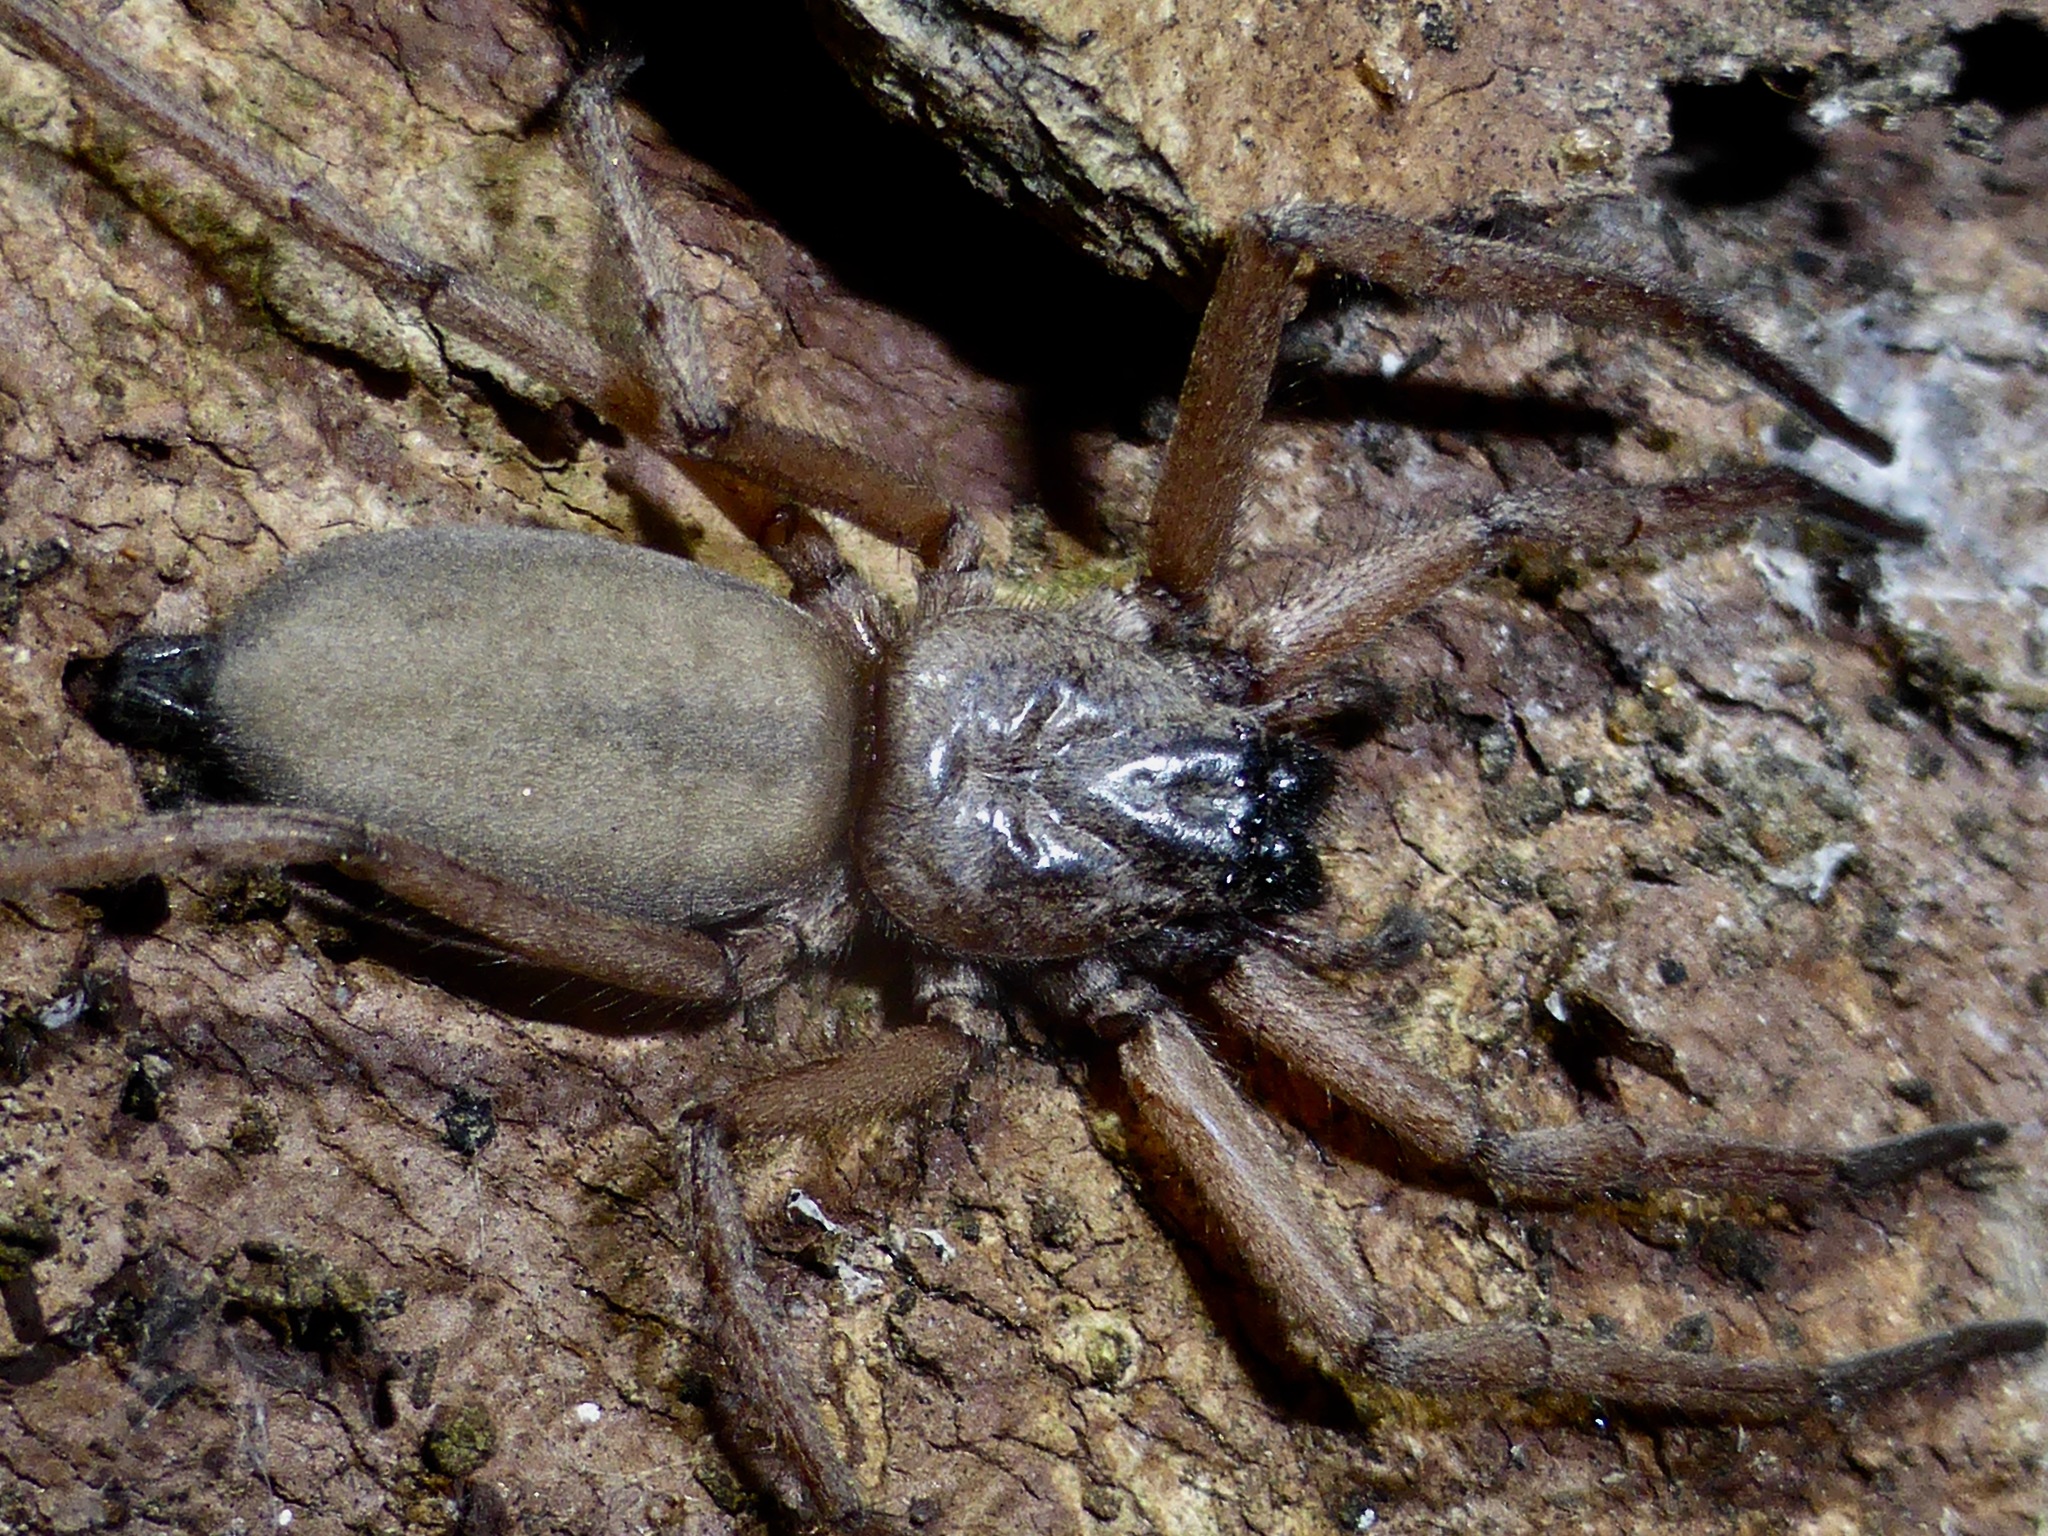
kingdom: Animalia
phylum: Arthropoda
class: Arachnida
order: Araneae
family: Trochanteriidae
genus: Hemicloea
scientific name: Hemicloea rogenhoferi
